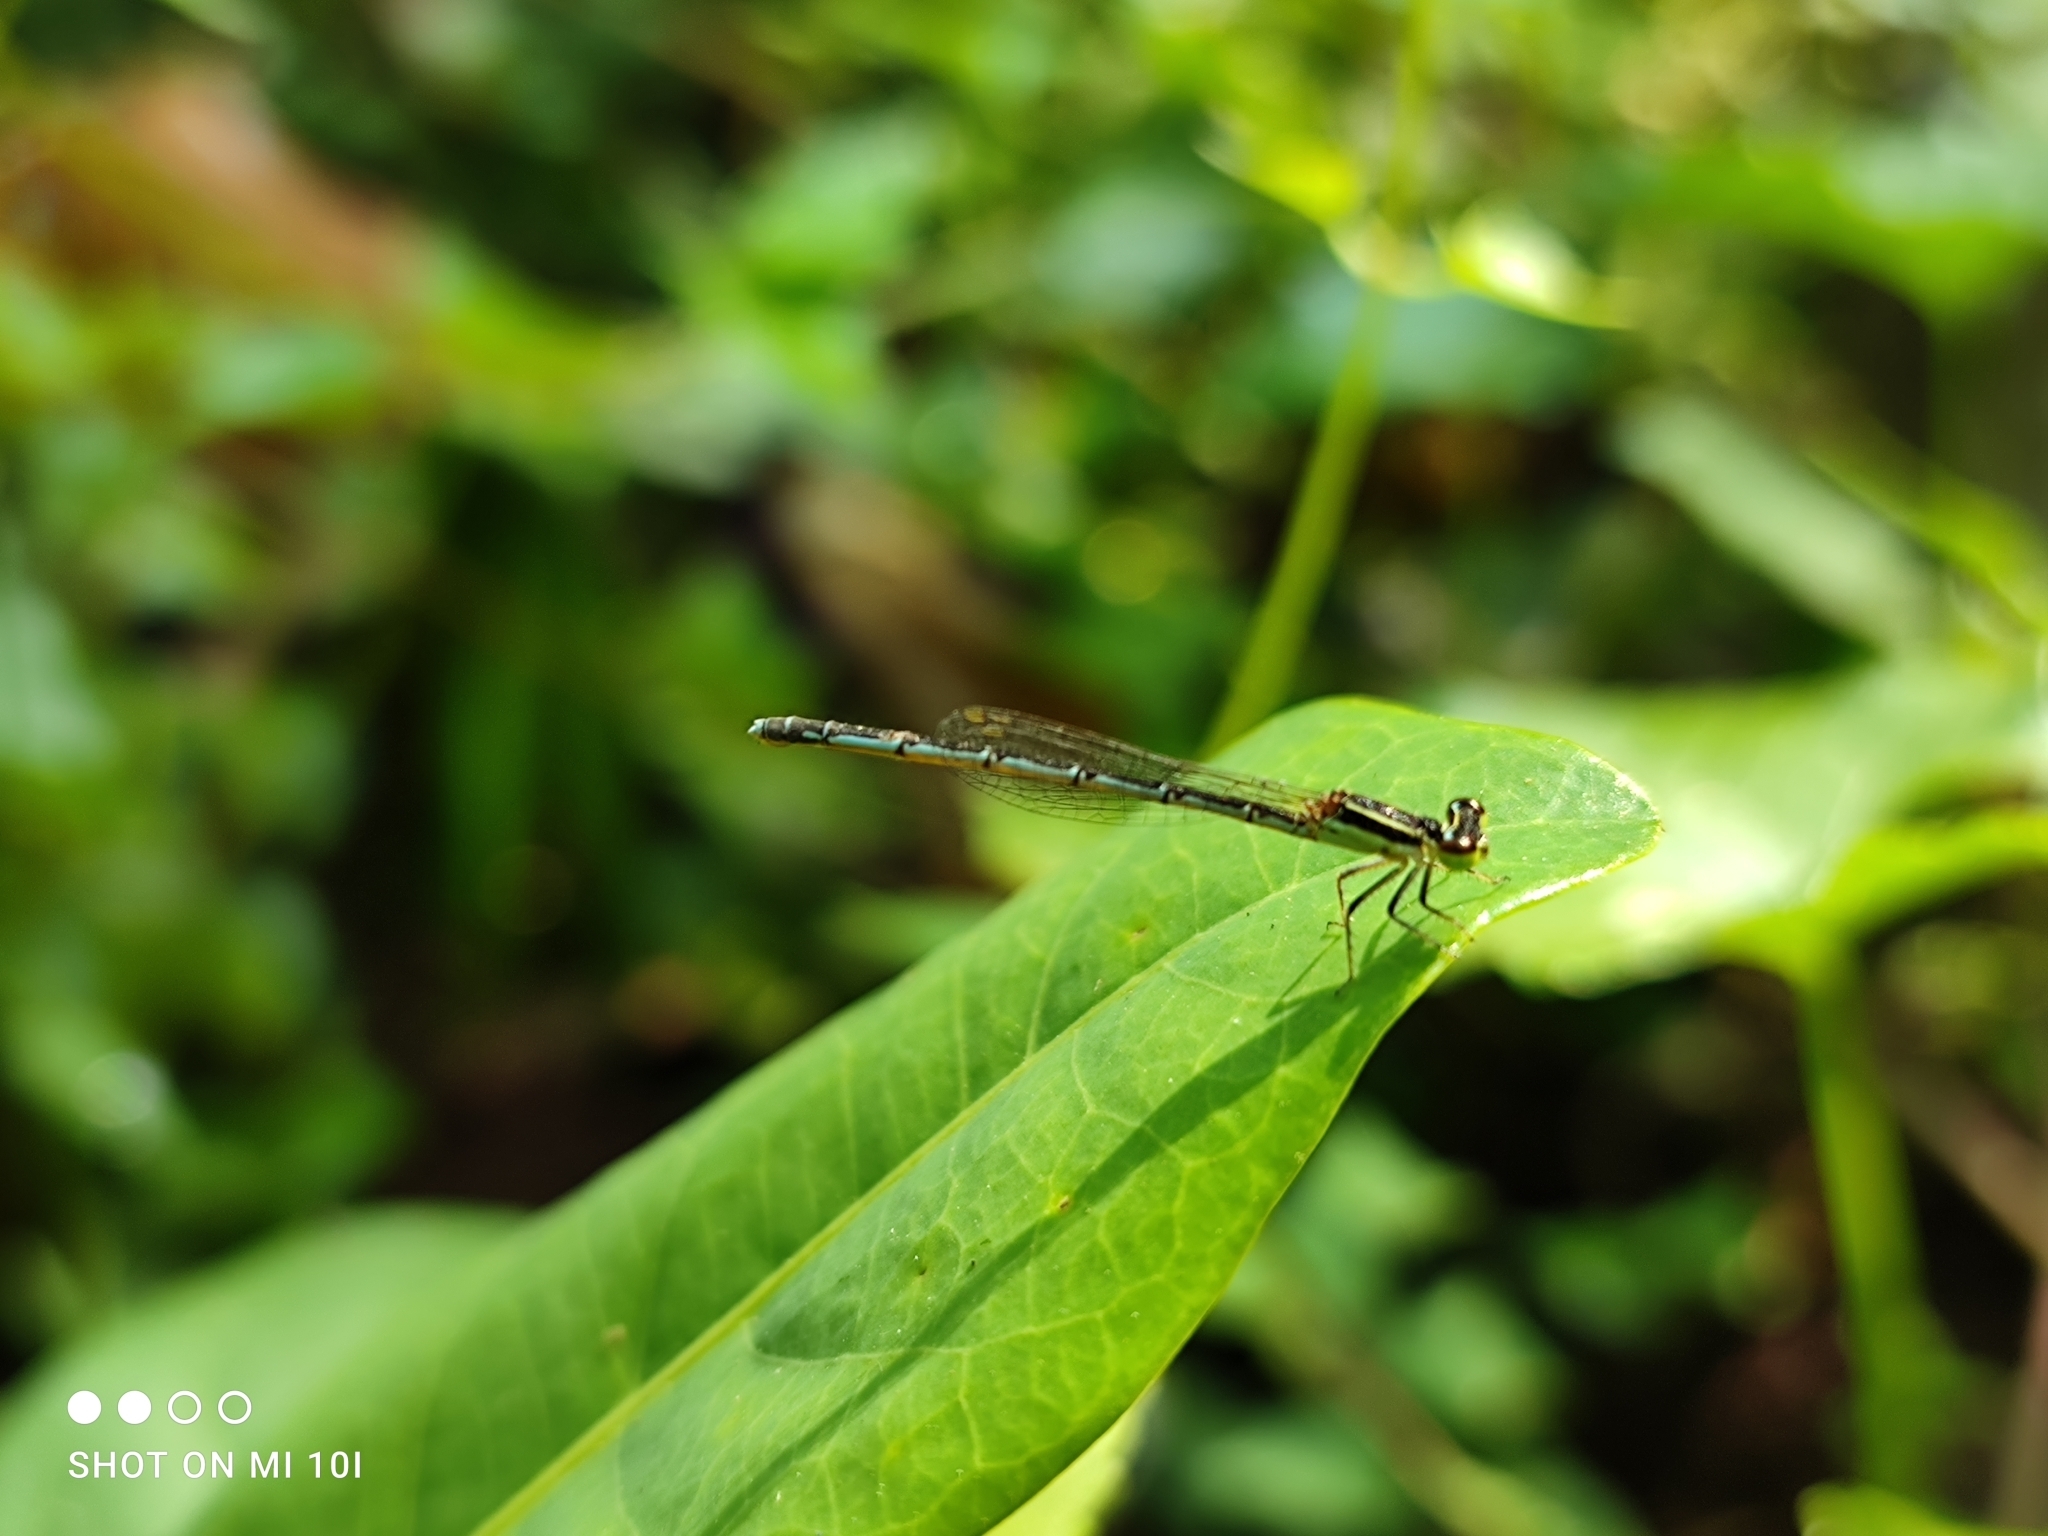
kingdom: Animalia
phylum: Arthropoda
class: Insecta
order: Odonata
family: Coenagrionidae
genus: Agriocnemis
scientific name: Agriocnemis pieris
